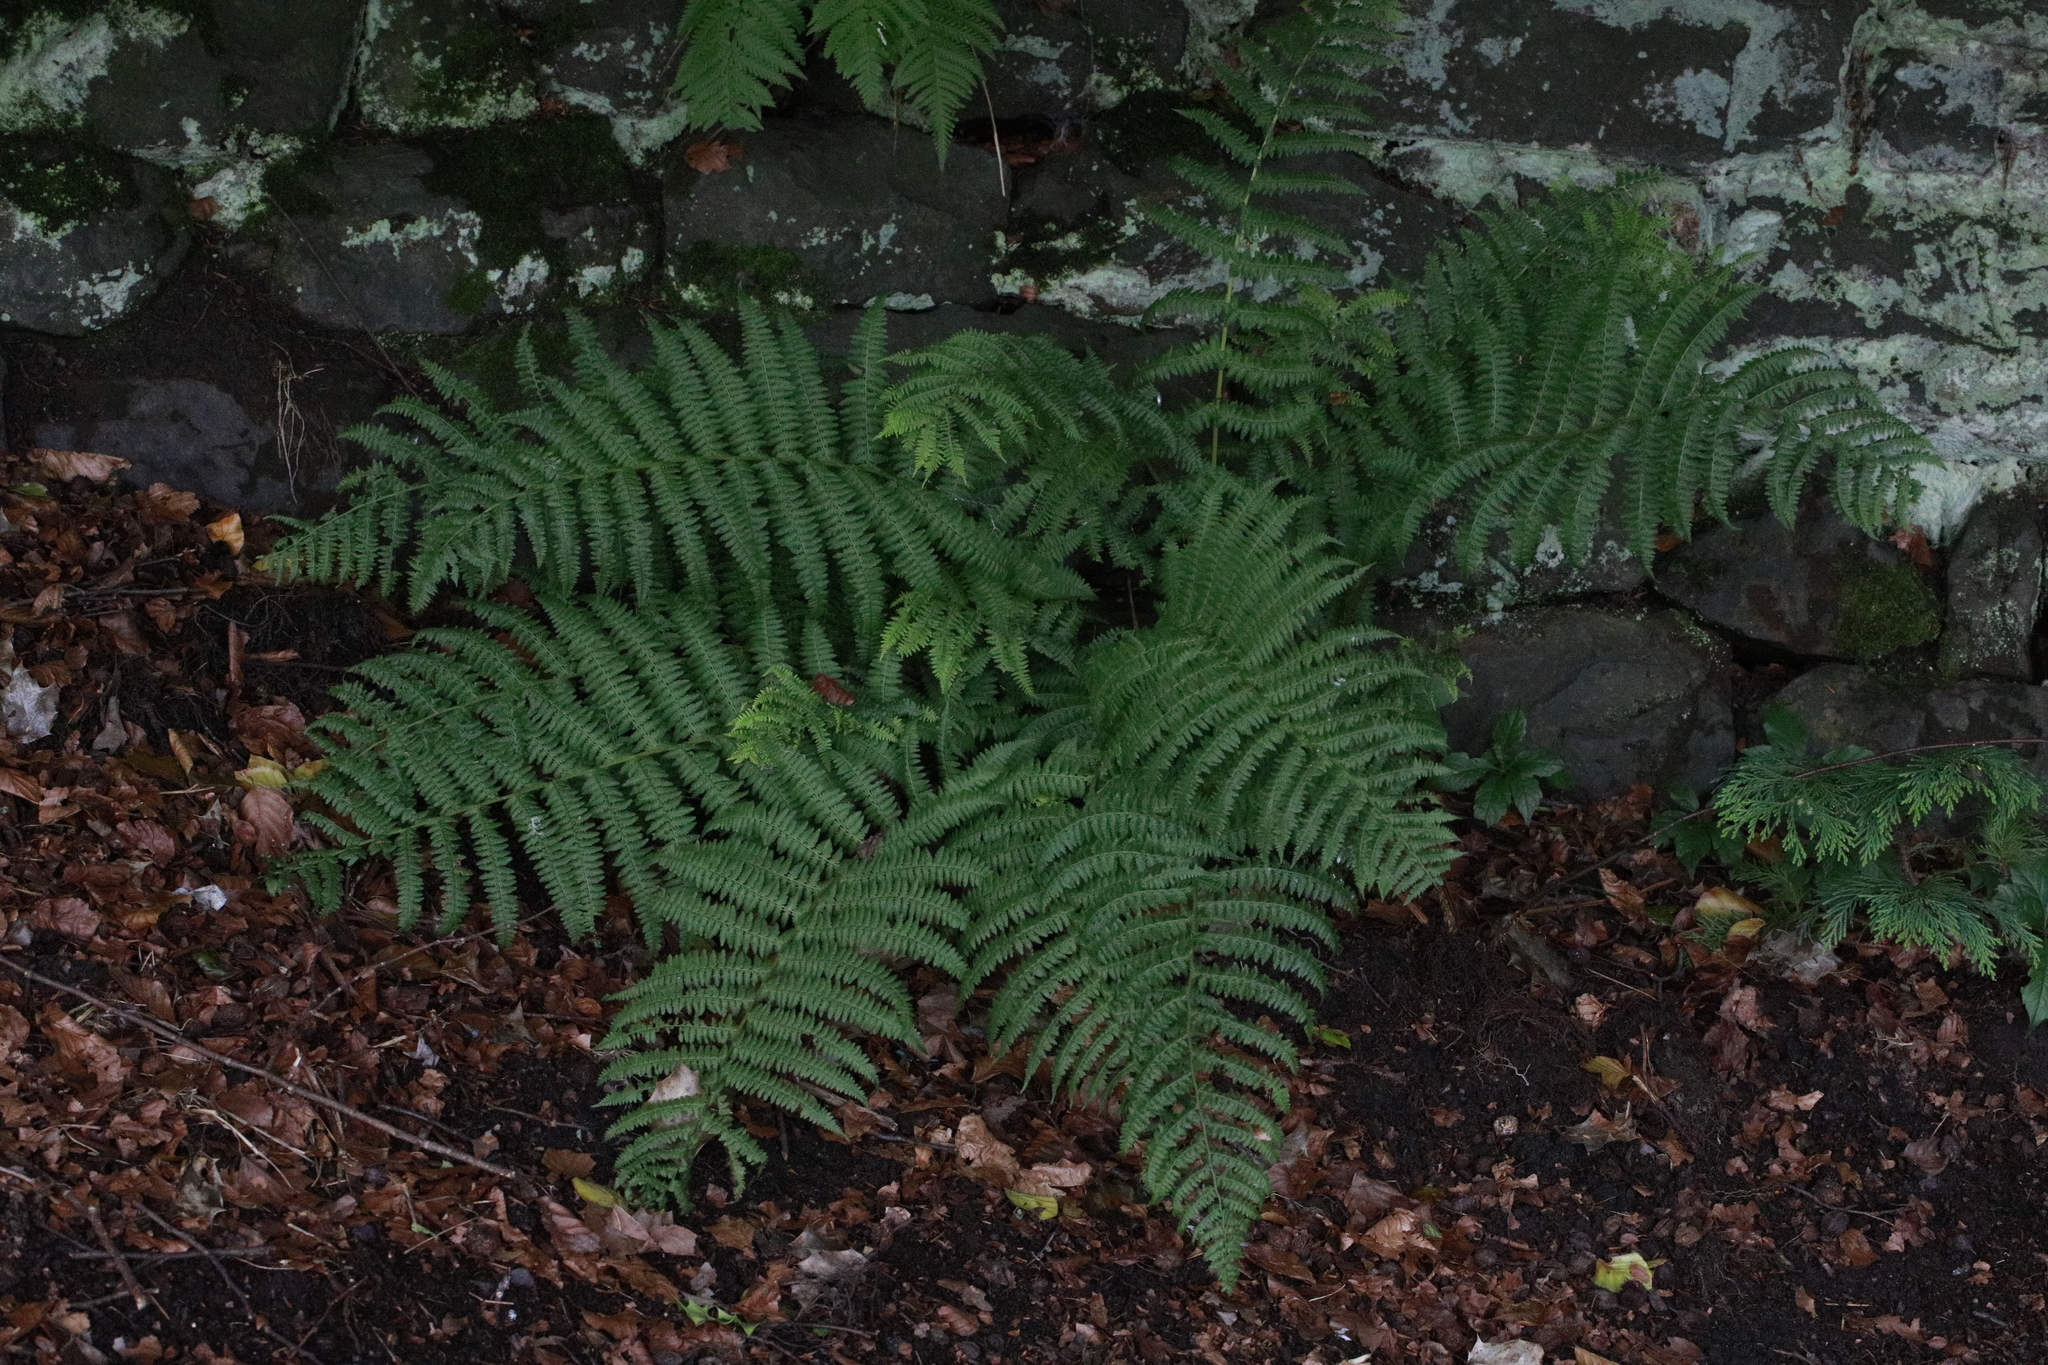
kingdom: Plantae
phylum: Tracheophyta
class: Polypodiopsida
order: Polypodiales
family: Dryopteridaceae
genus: Dryopteris
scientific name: Dryopteris filix-mas
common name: Male fern
